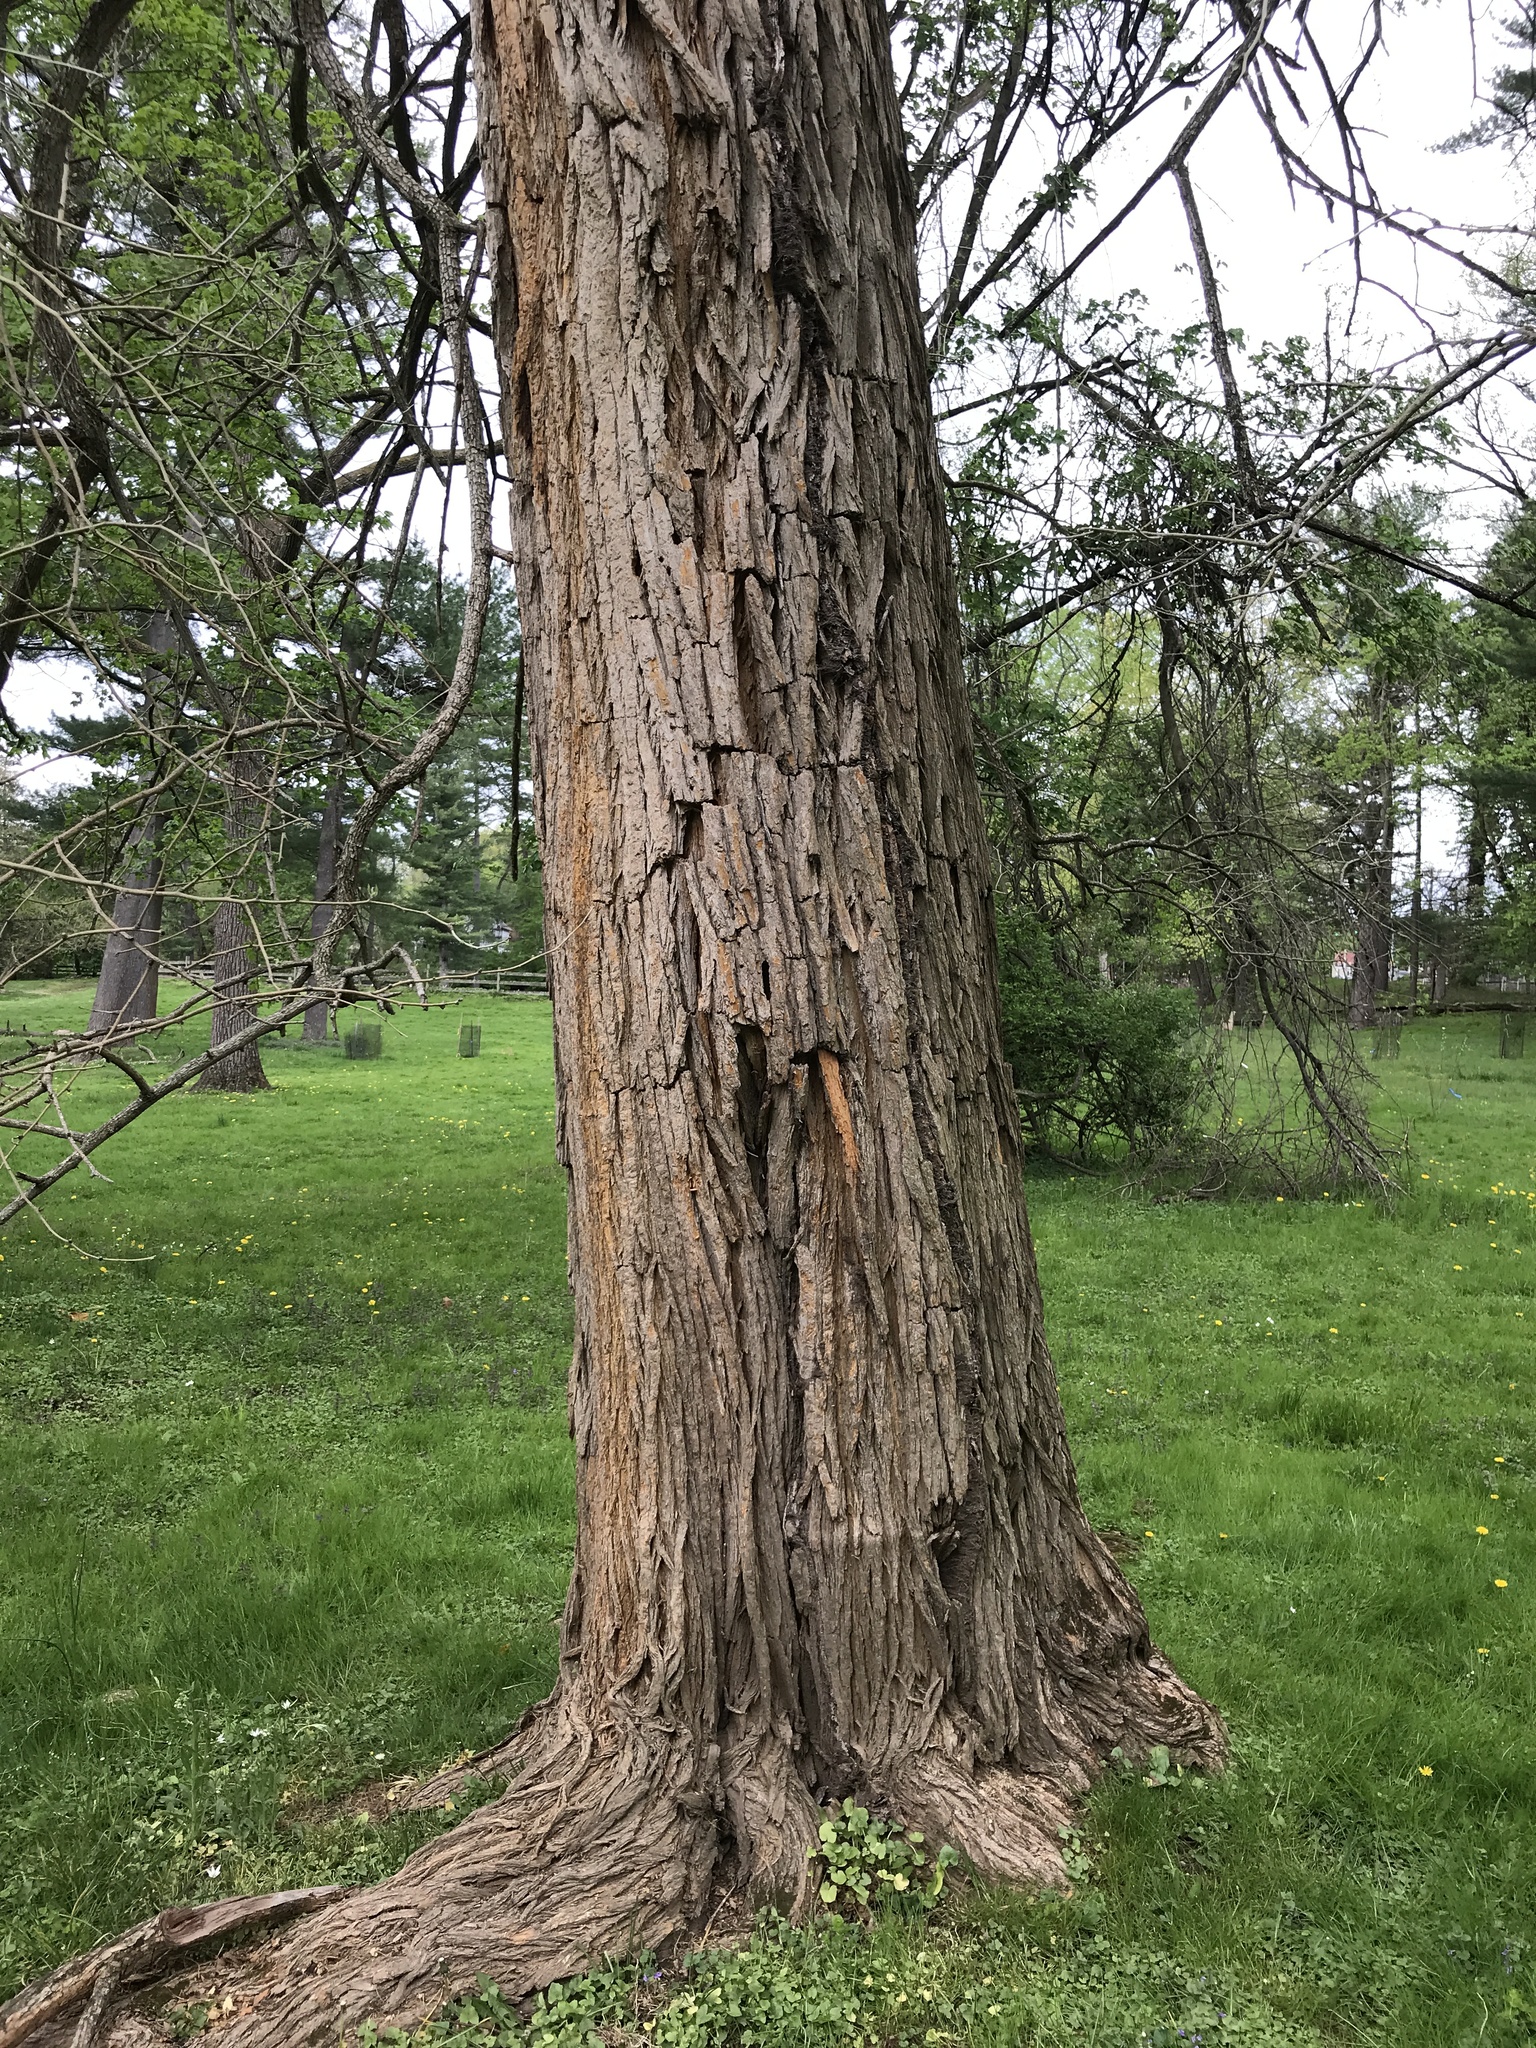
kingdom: Plantae
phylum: Tracheophyta
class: Magnoliopsida
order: Rosales
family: Moraceae
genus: Maclura
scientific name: Maclura pomifera
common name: Osage-orange
